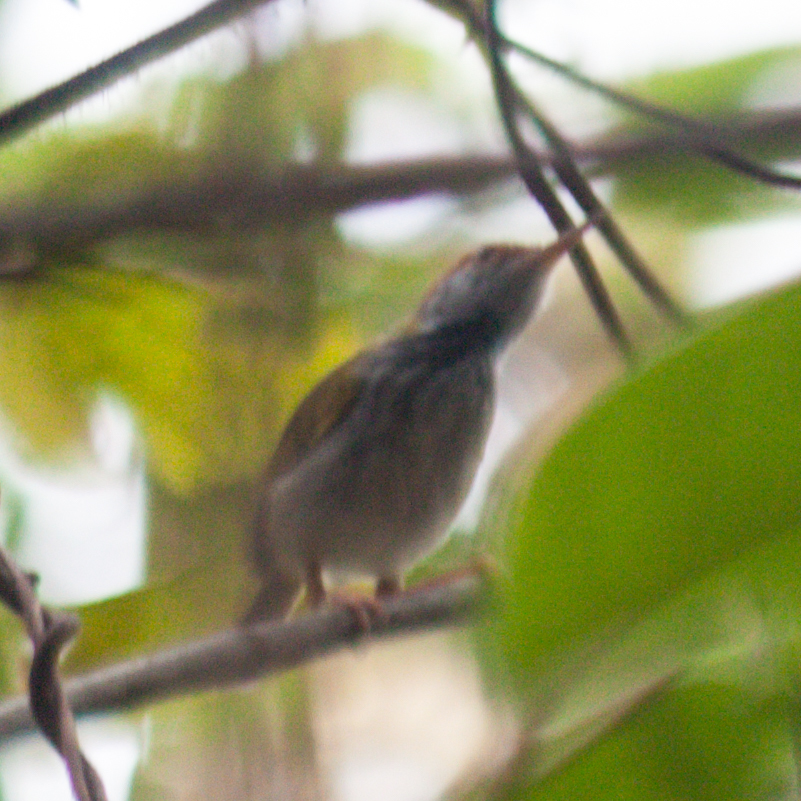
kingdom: Animalia
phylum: Chordata
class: Aves
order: Passeriformes
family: Cisticolidae
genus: Orthotomus
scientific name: Orthotomus atrogularis
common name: Dark-necked tailorbird
